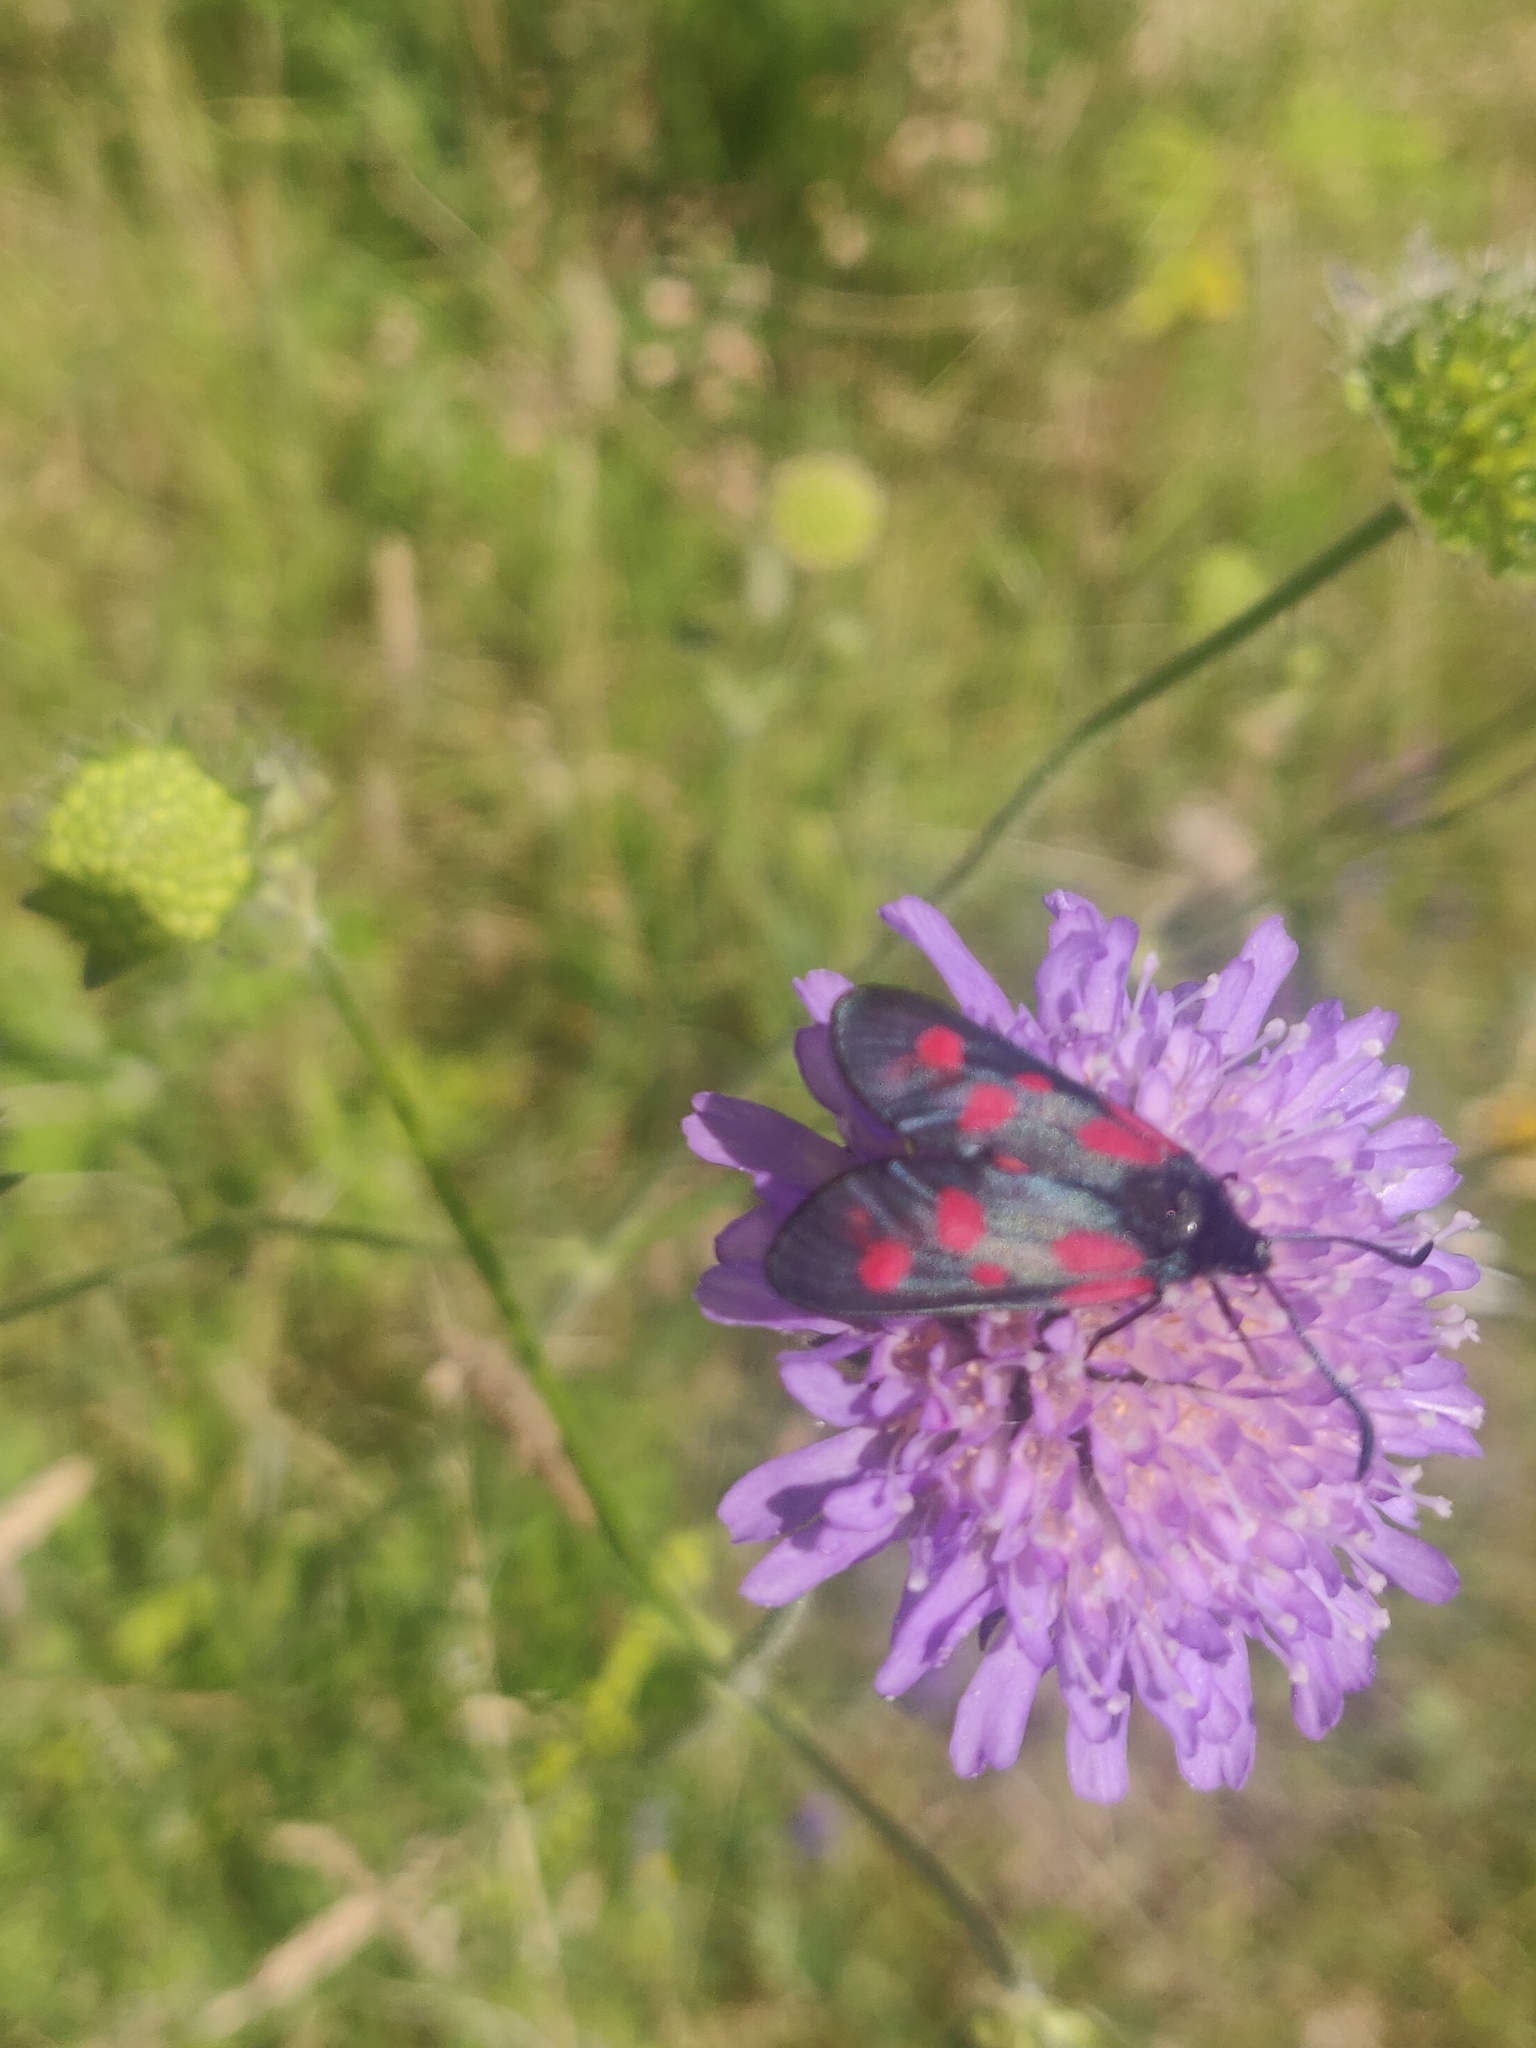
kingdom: Animalia
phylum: Arthropoda
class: Insecta
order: Lepidoptera
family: Zygaenidae
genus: Zygaena
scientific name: Zygaena filipendulae
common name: Six-spot burnet
